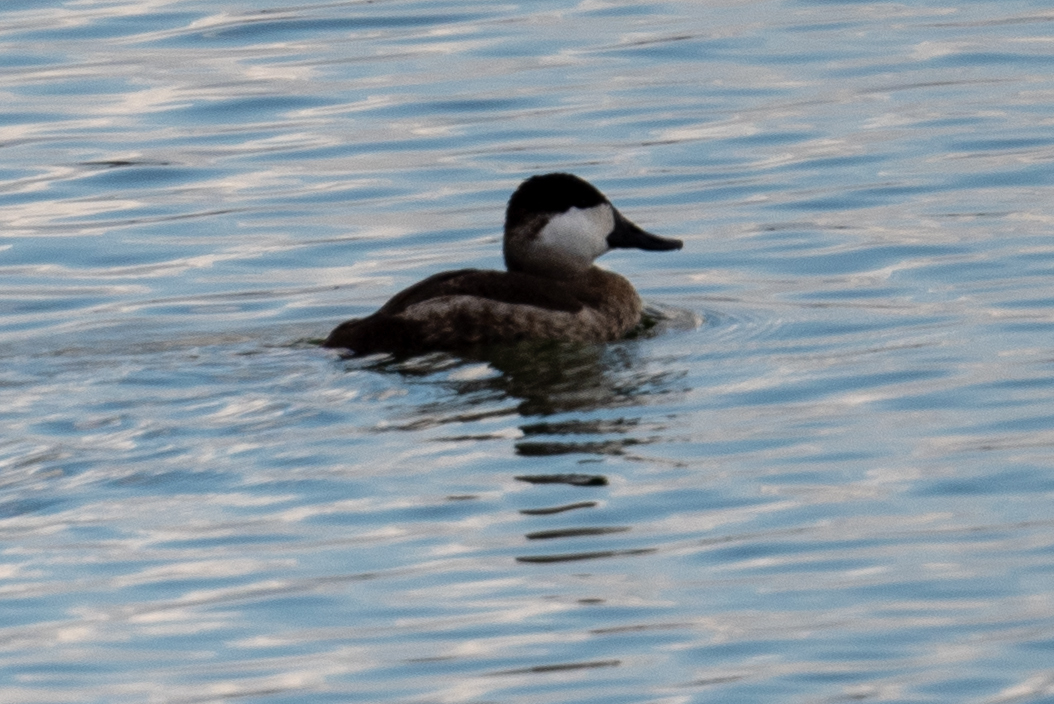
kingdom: Animalia
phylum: Chordata
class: Aves
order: Anseriformes
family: Anatidae
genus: Oxyura
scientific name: Oxyura jamaicensis
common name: Ruddy duck
